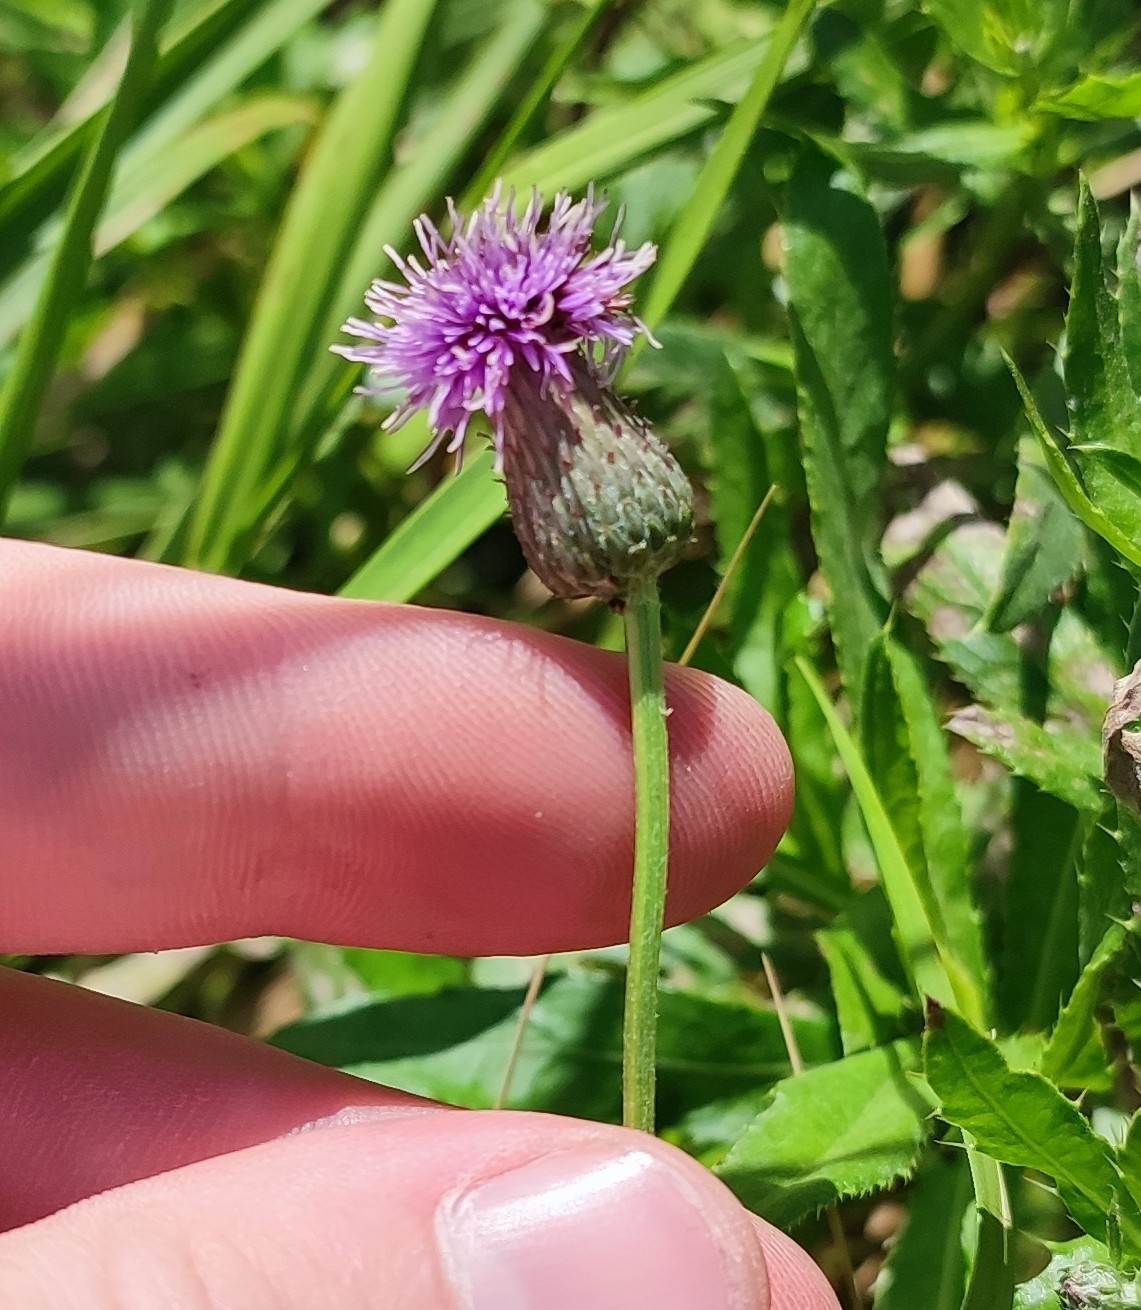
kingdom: Plantae
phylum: Tracheophyta
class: Magnoliopsida
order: Asterales
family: Asteraceae
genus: Cirsium
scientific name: Cirsium arvense
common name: Creeping thistle
